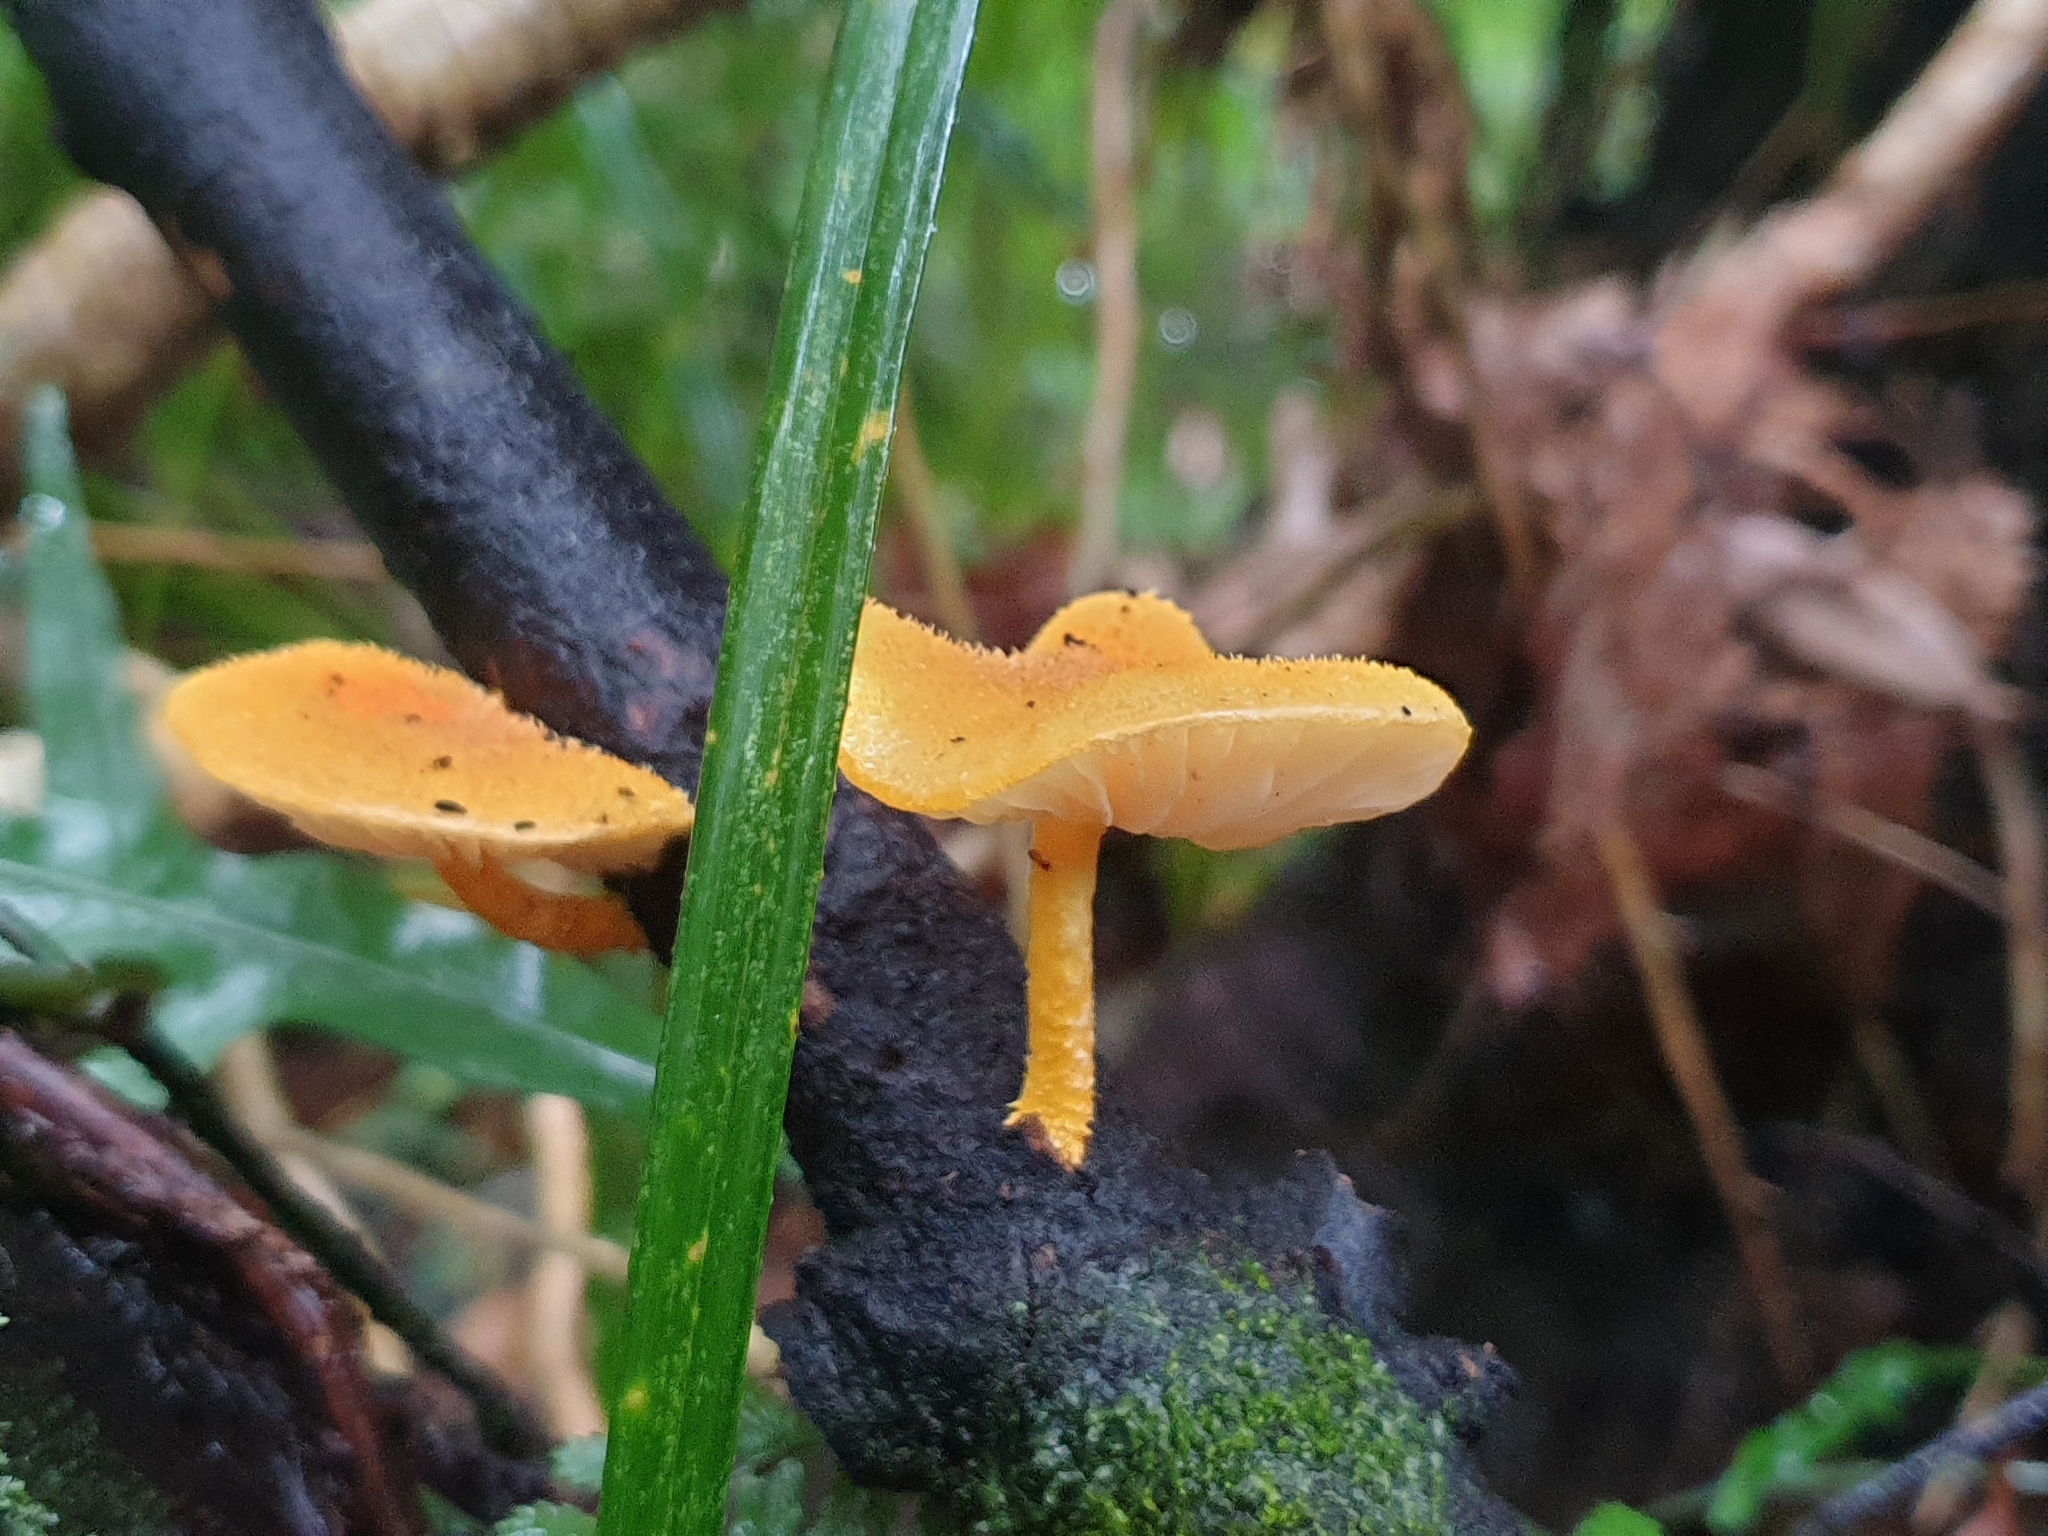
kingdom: Fungi
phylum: Basidiomycota
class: Agaricomycetes
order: Agaricales
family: Physalacriaceae
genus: Cyptotrama
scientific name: Cyptotrama asprata
